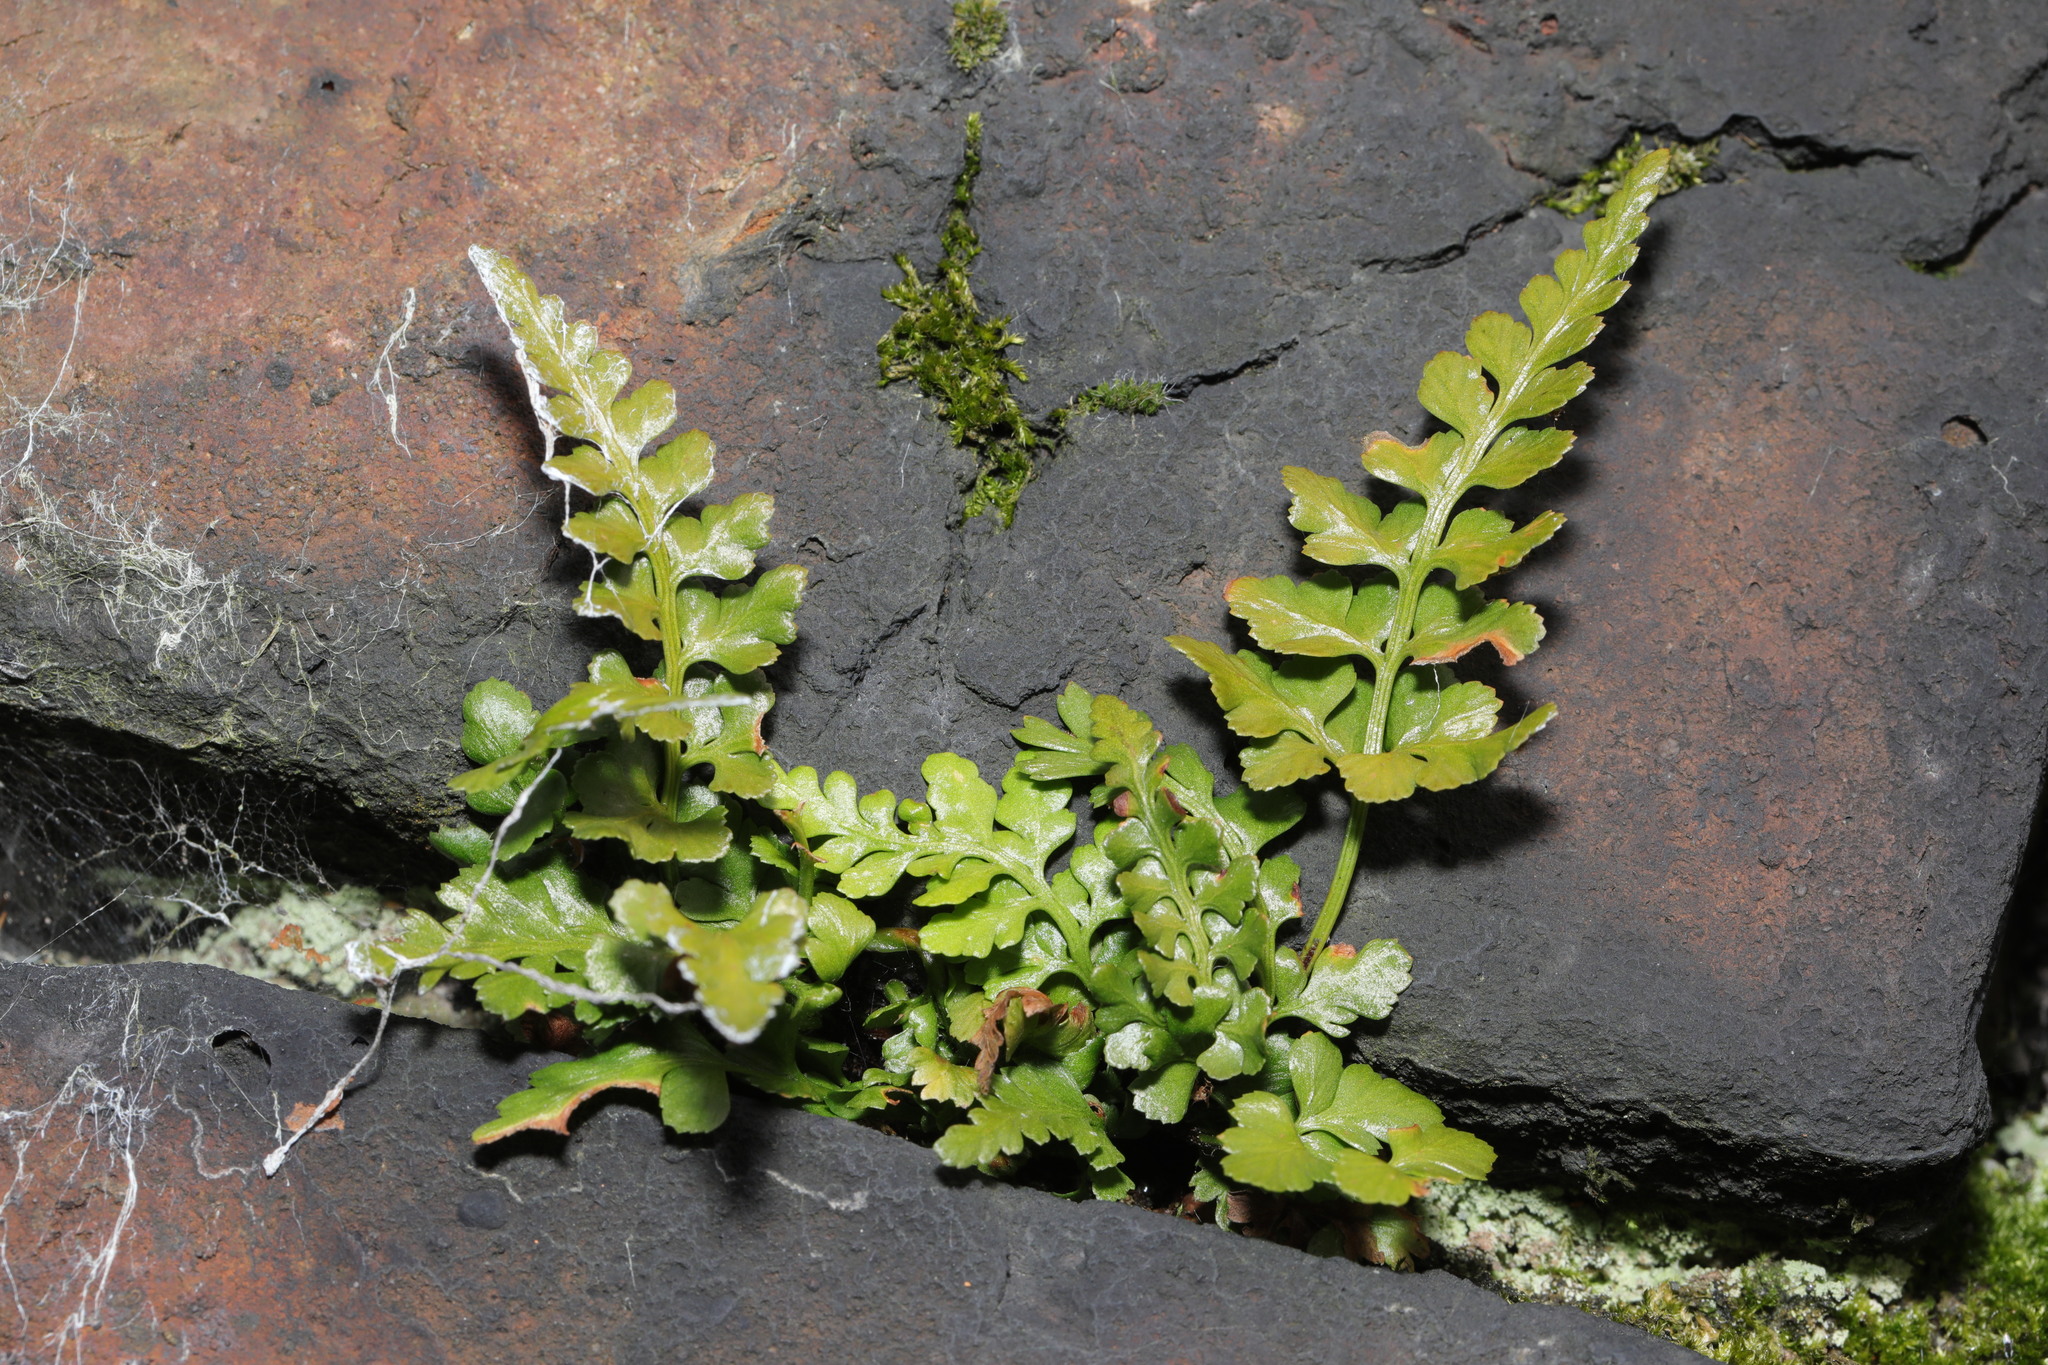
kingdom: Plantae
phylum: Tracheophyta
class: Polypodiopsida
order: Polypodiales
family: Aspleniaceae
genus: Asplenium
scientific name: Asplenium adiantum-nigrum
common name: Black spleenwort
